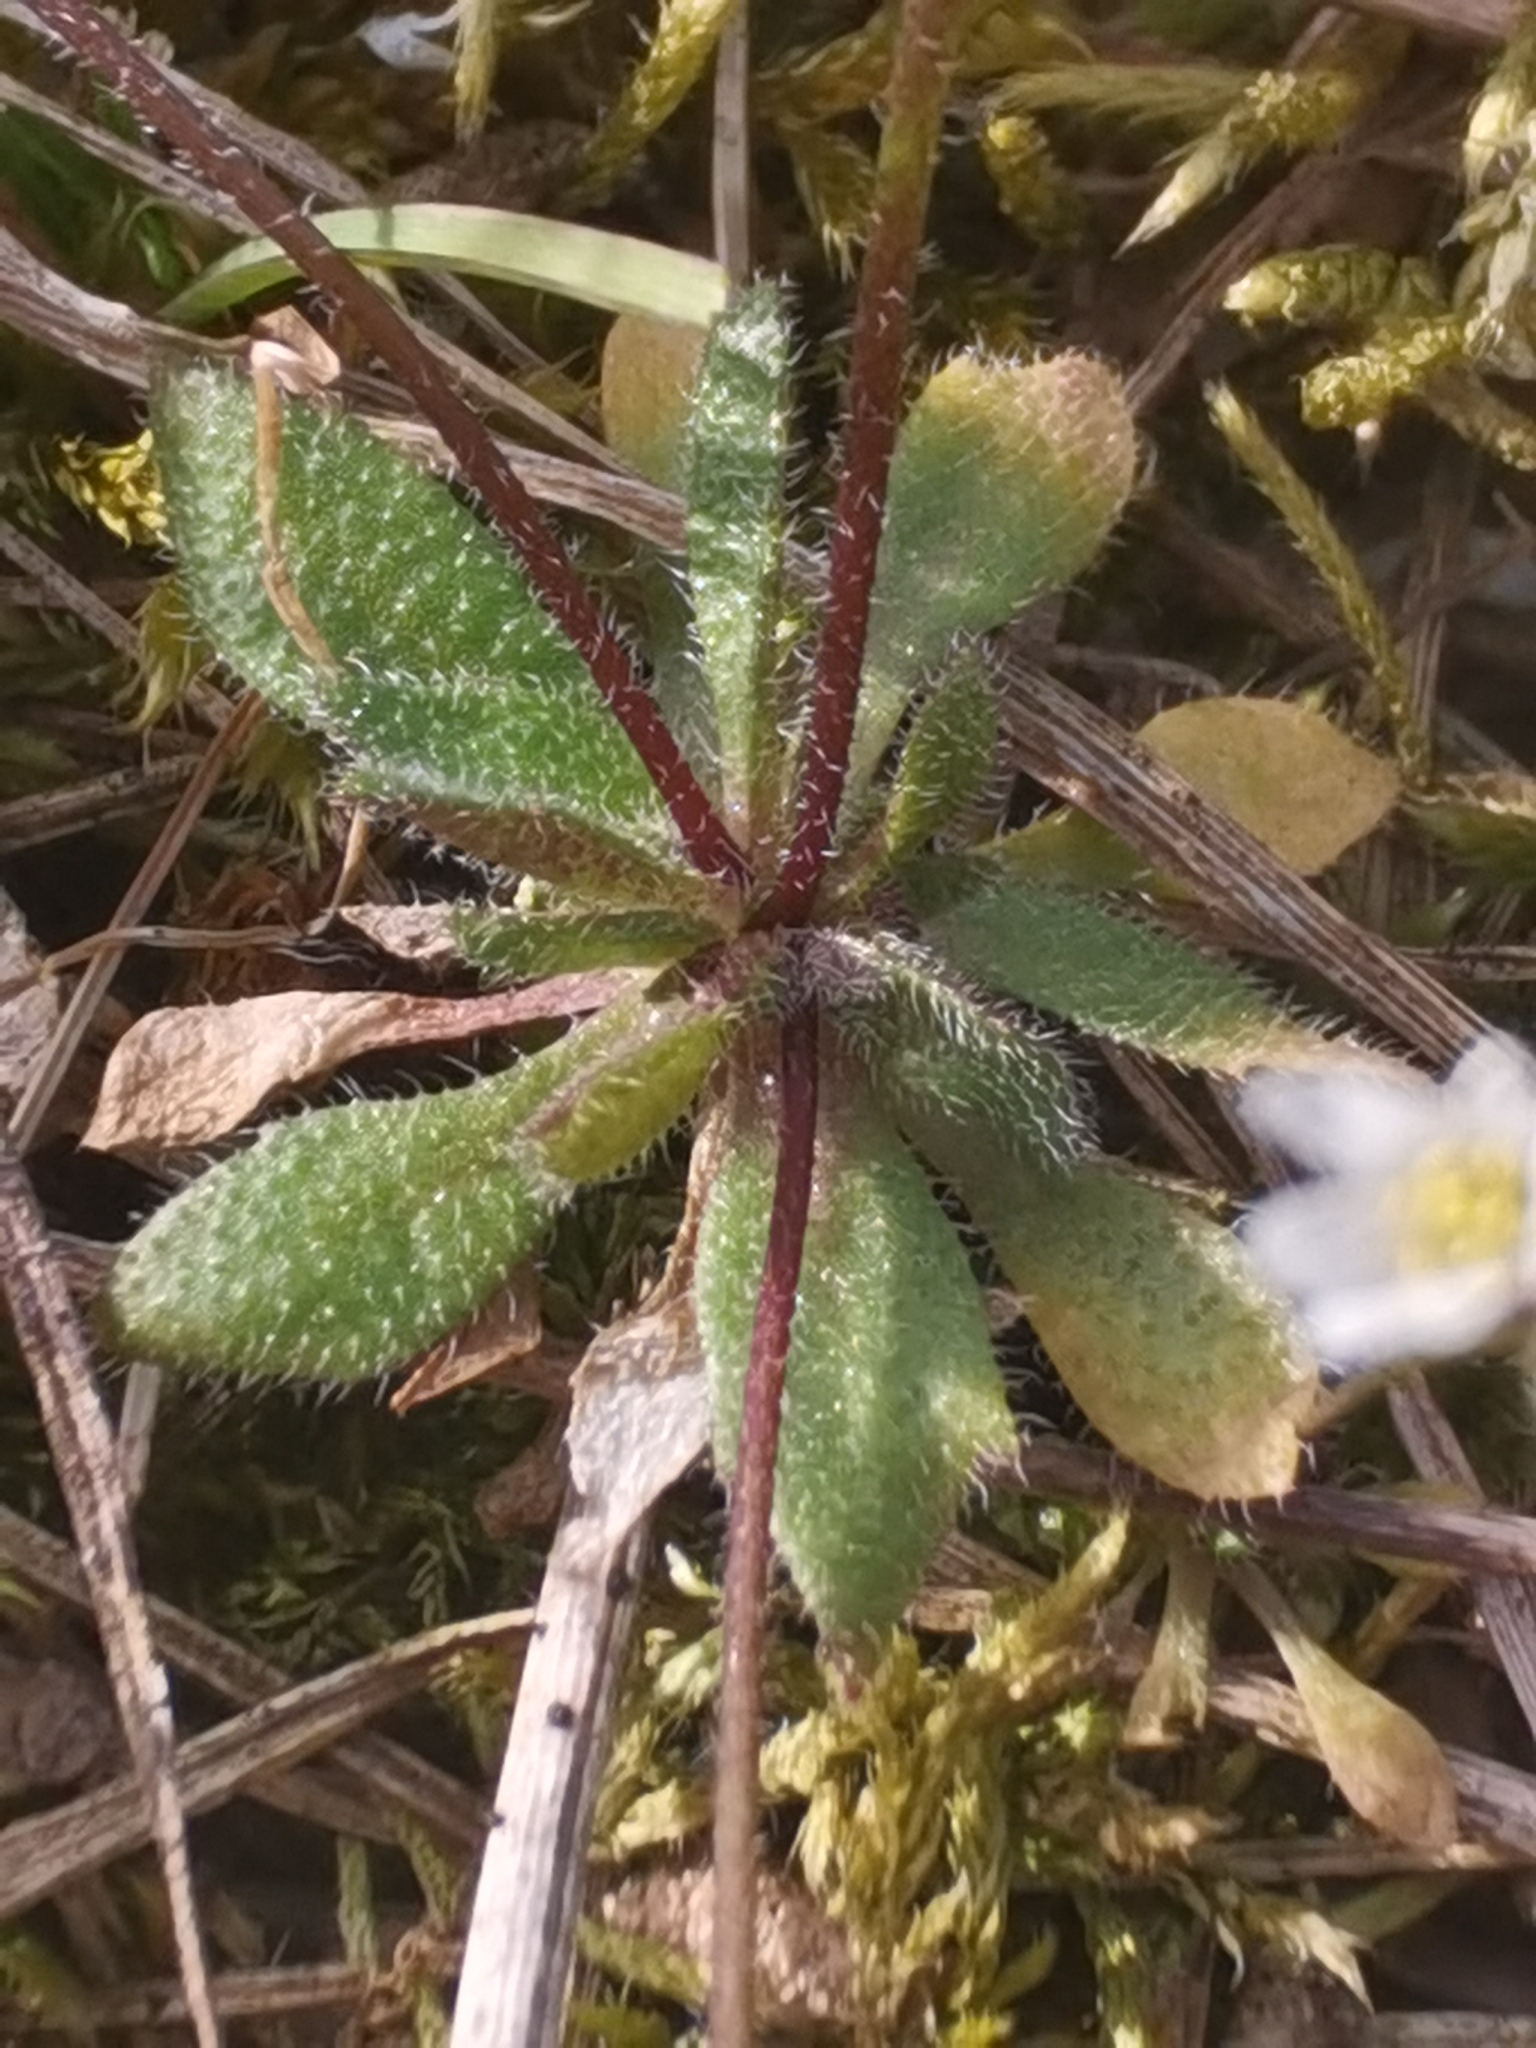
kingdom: Plantae
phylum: Tracheophyta
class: Magnoliopsida
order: Brassicales
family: Brassicaceae
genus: Draba
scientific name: Draba verna
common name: Spring draba
